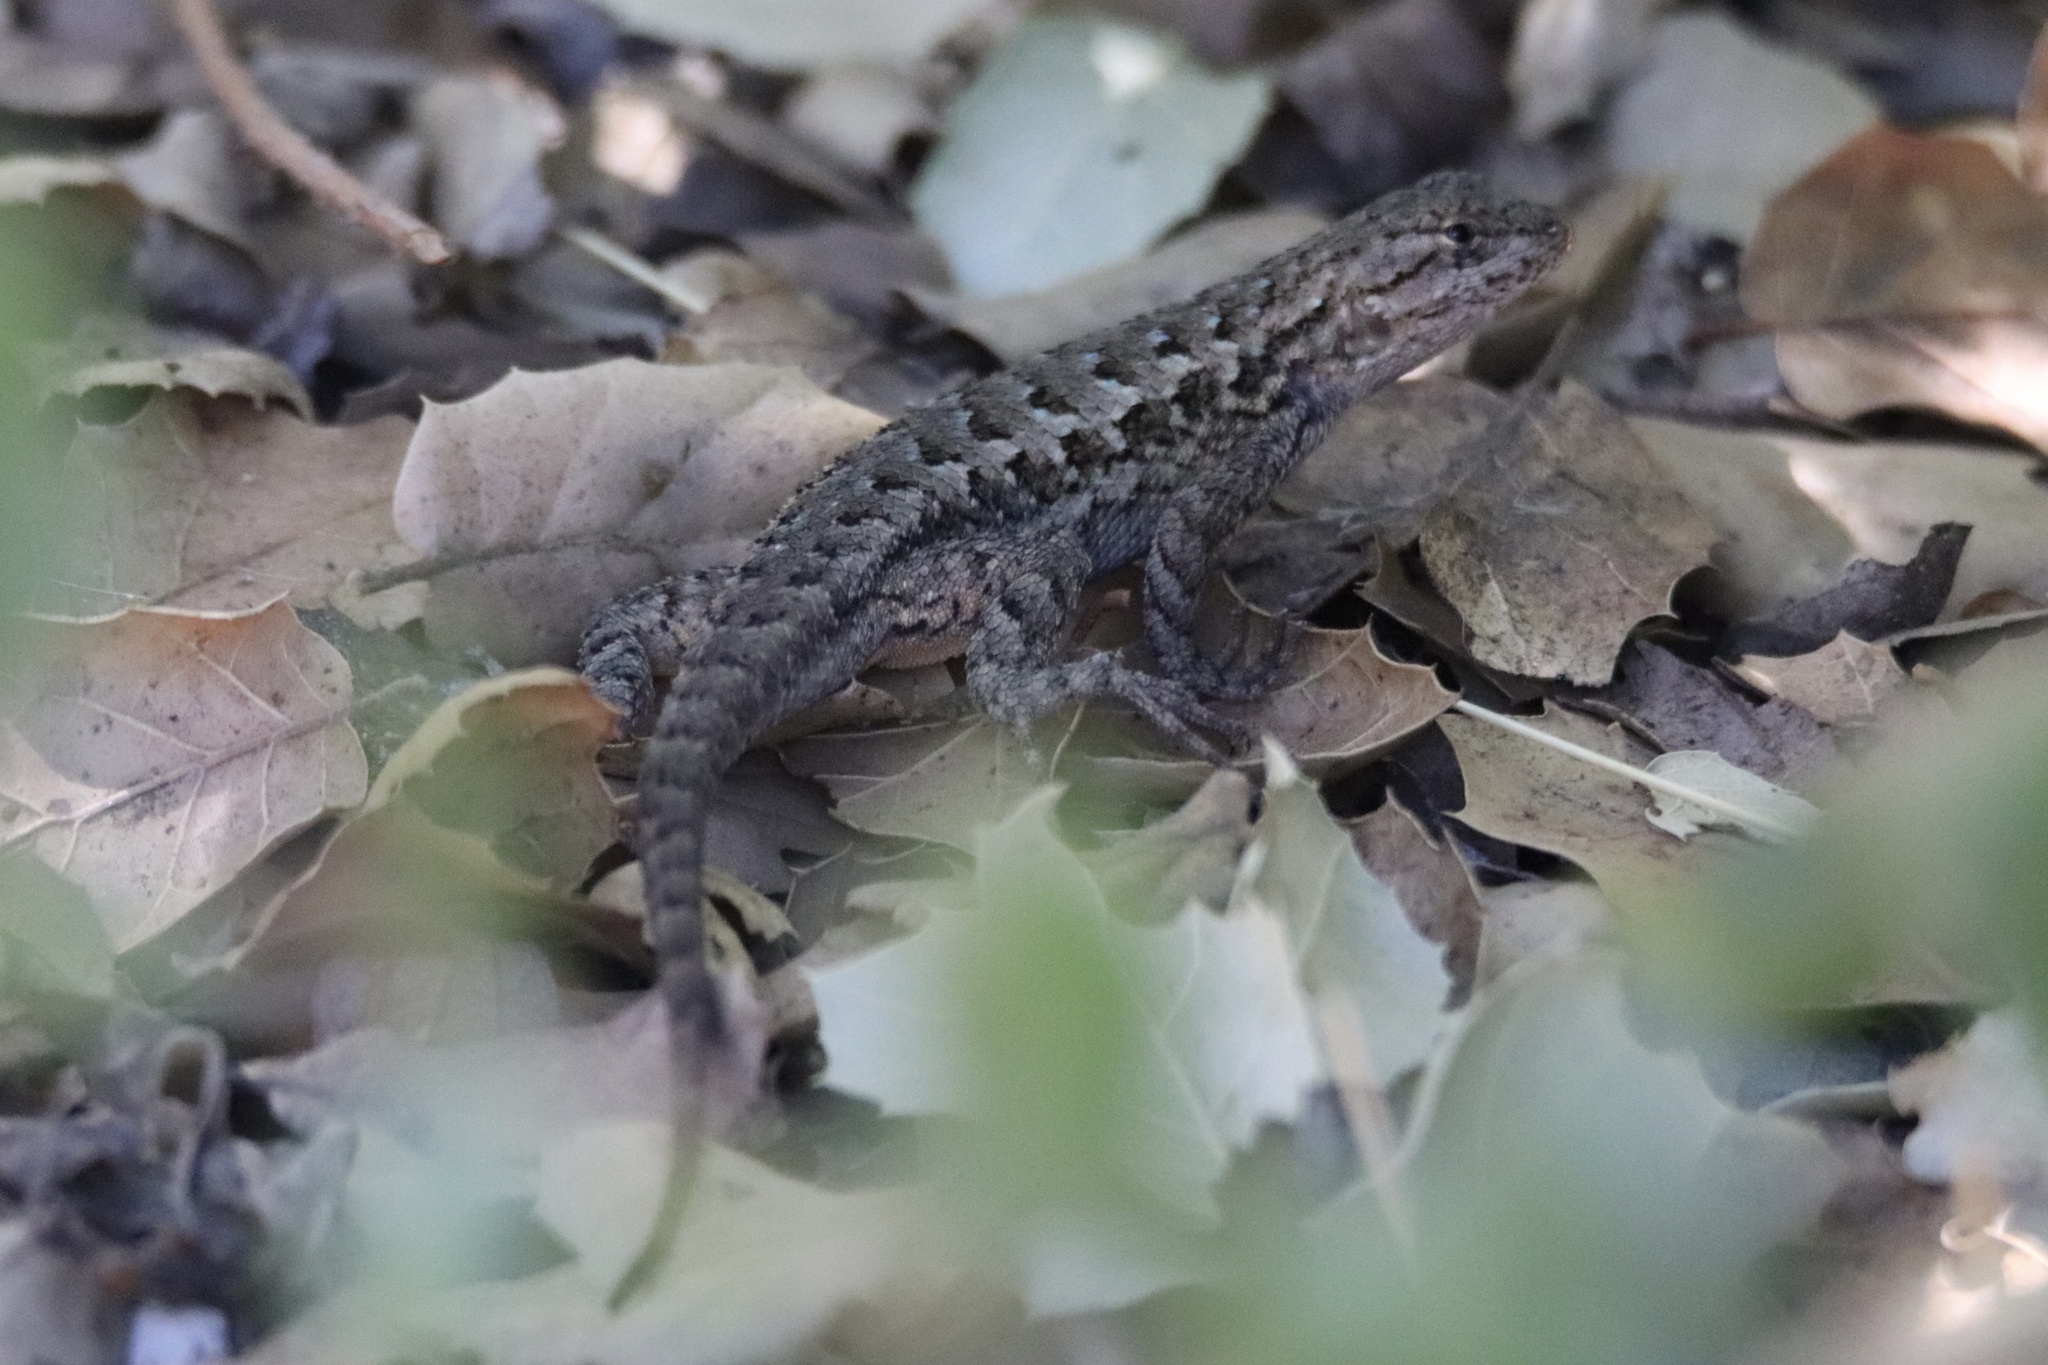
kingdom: Animalia
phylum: Chordata
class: Squamata
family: Phrynosomatidae
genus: Sceloporus
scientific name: Sceloporus occidentalis
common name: Western fence lizard
